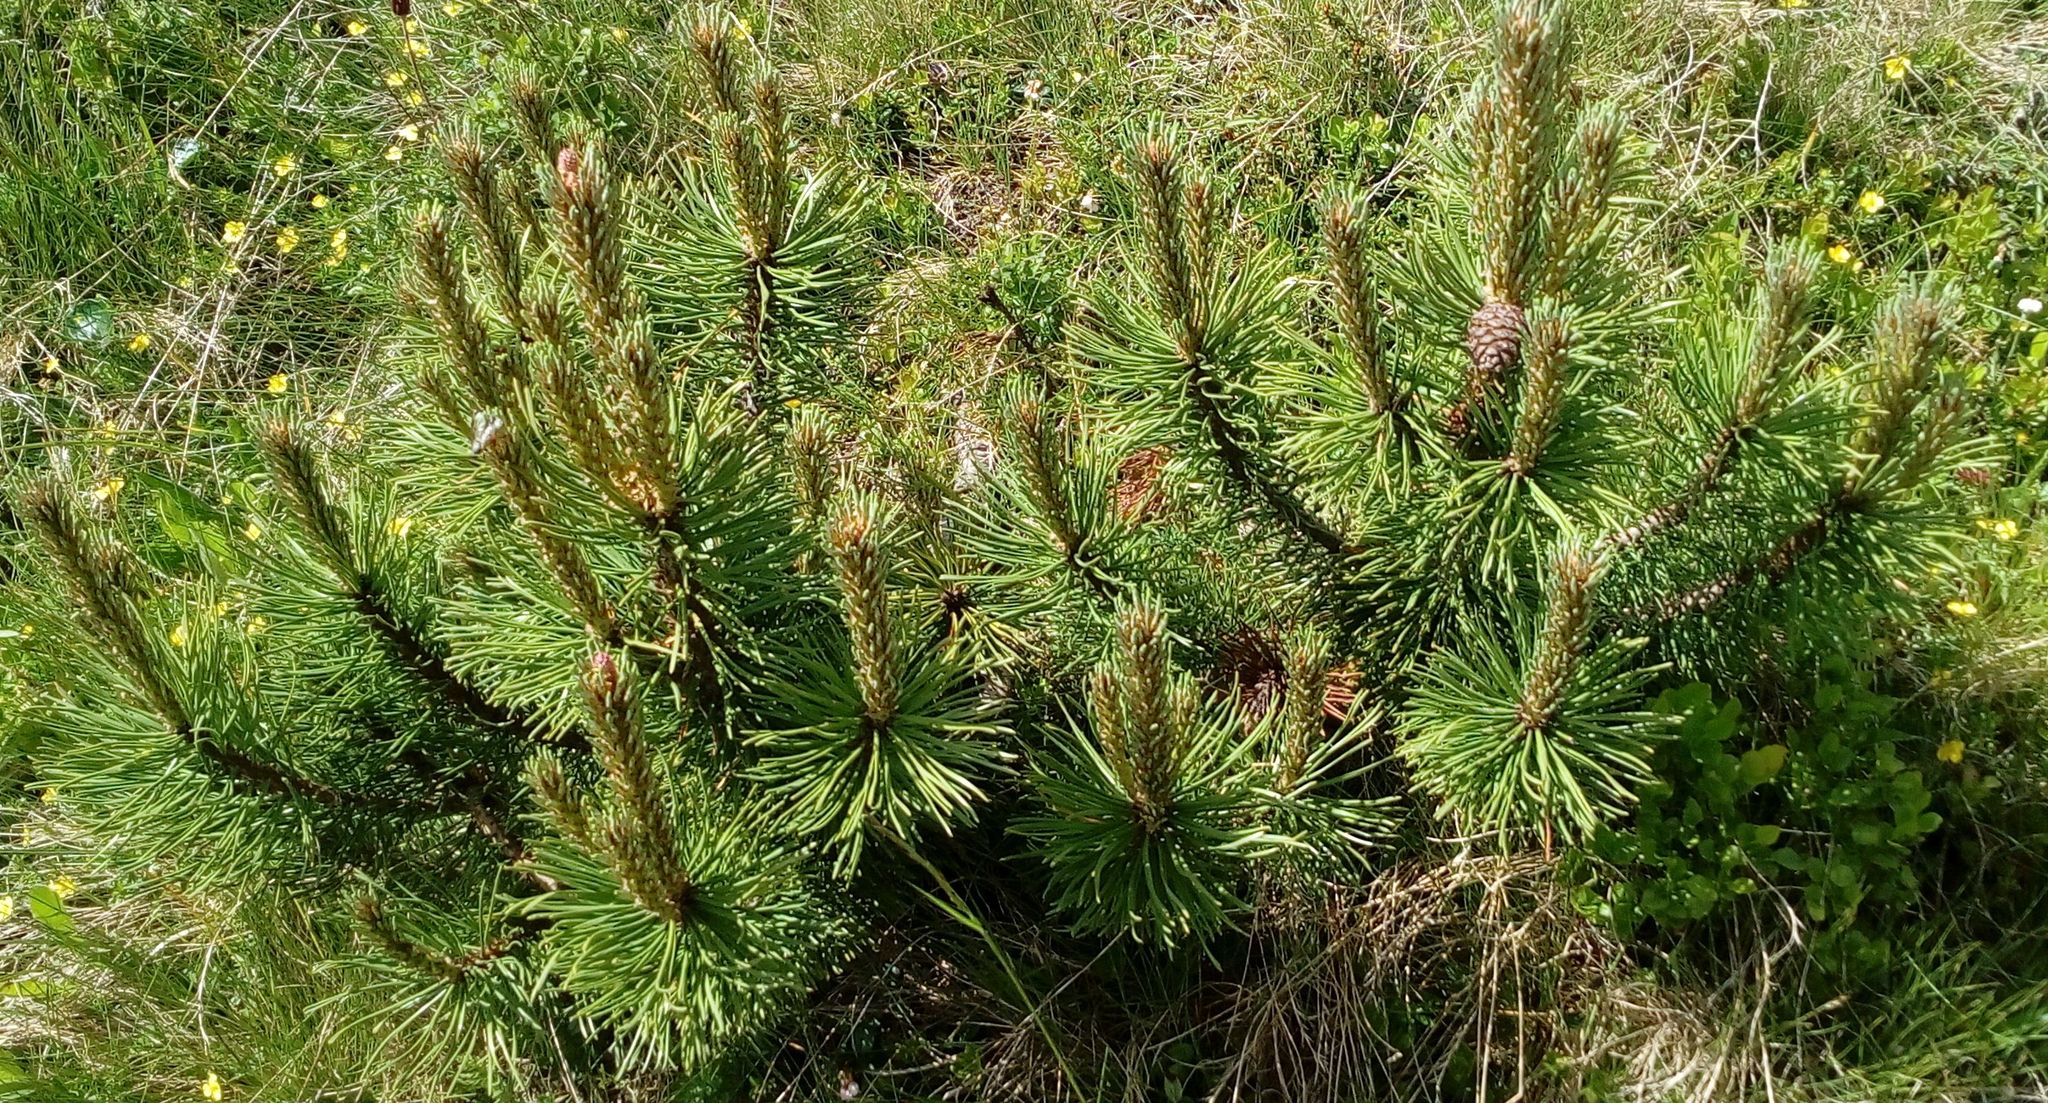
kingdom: Plantae
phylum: Tracheophyta
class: Pinopsida
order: Pinales
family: Pinaceae
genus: Pinus
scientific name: Pinus mugo
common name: Mugo pine
